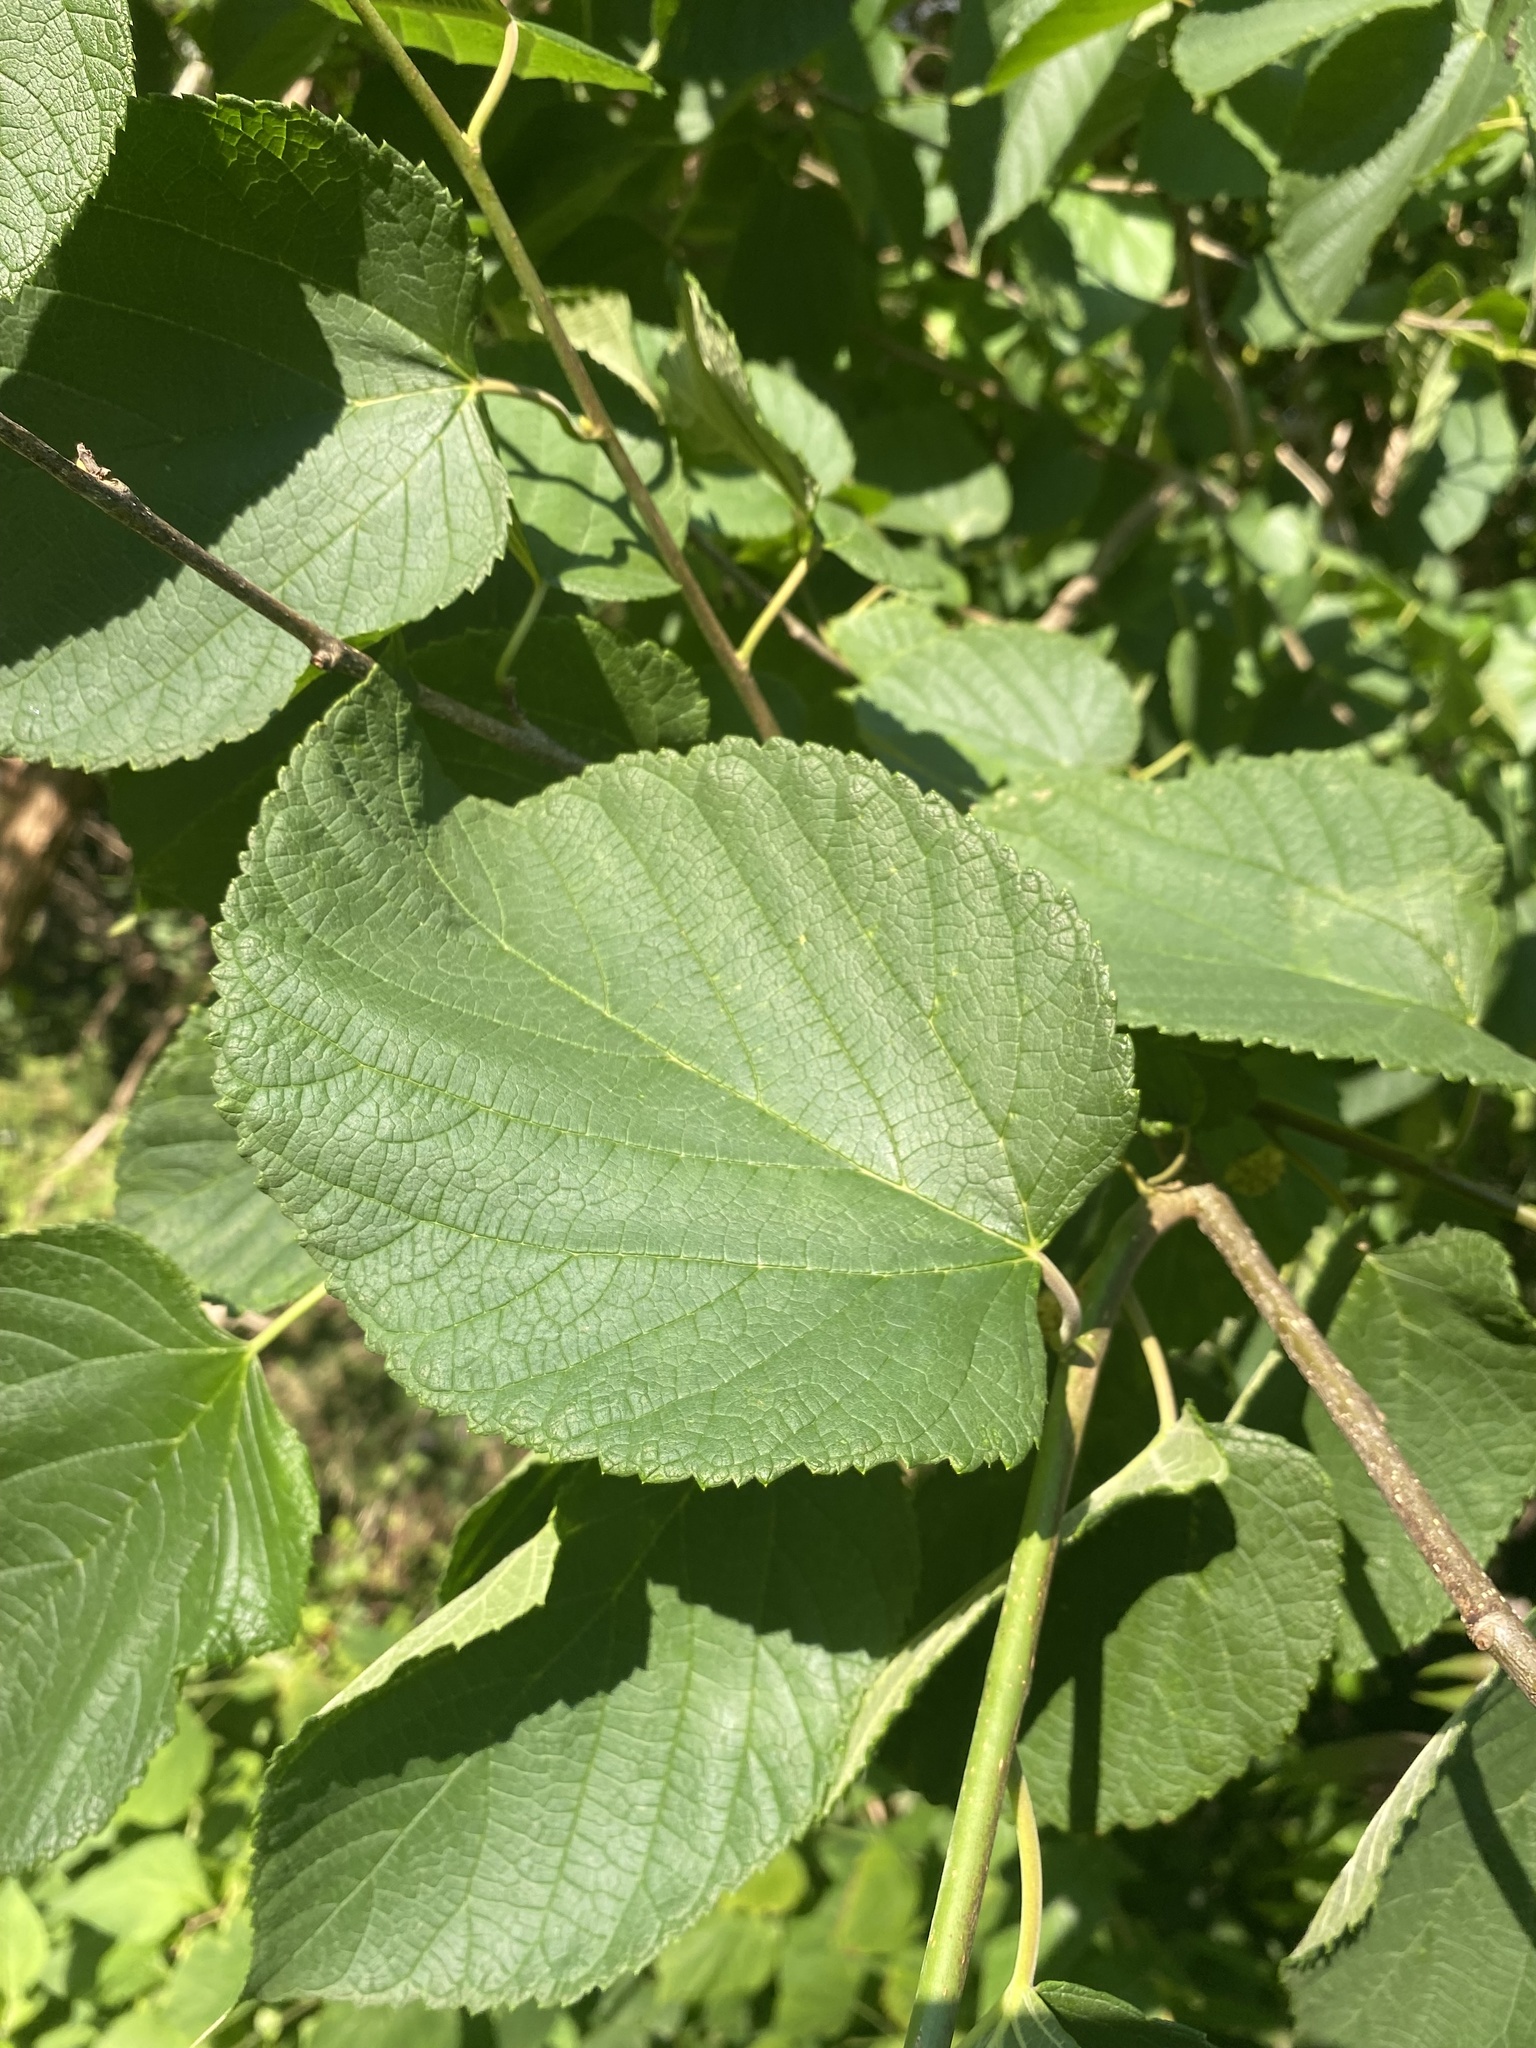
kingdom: Plantae
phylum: Tracheophyta
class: Magnoliopsida
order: Rosales
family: Moraceae
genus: Morus
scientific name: Morus rubra
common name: Red mulberry
